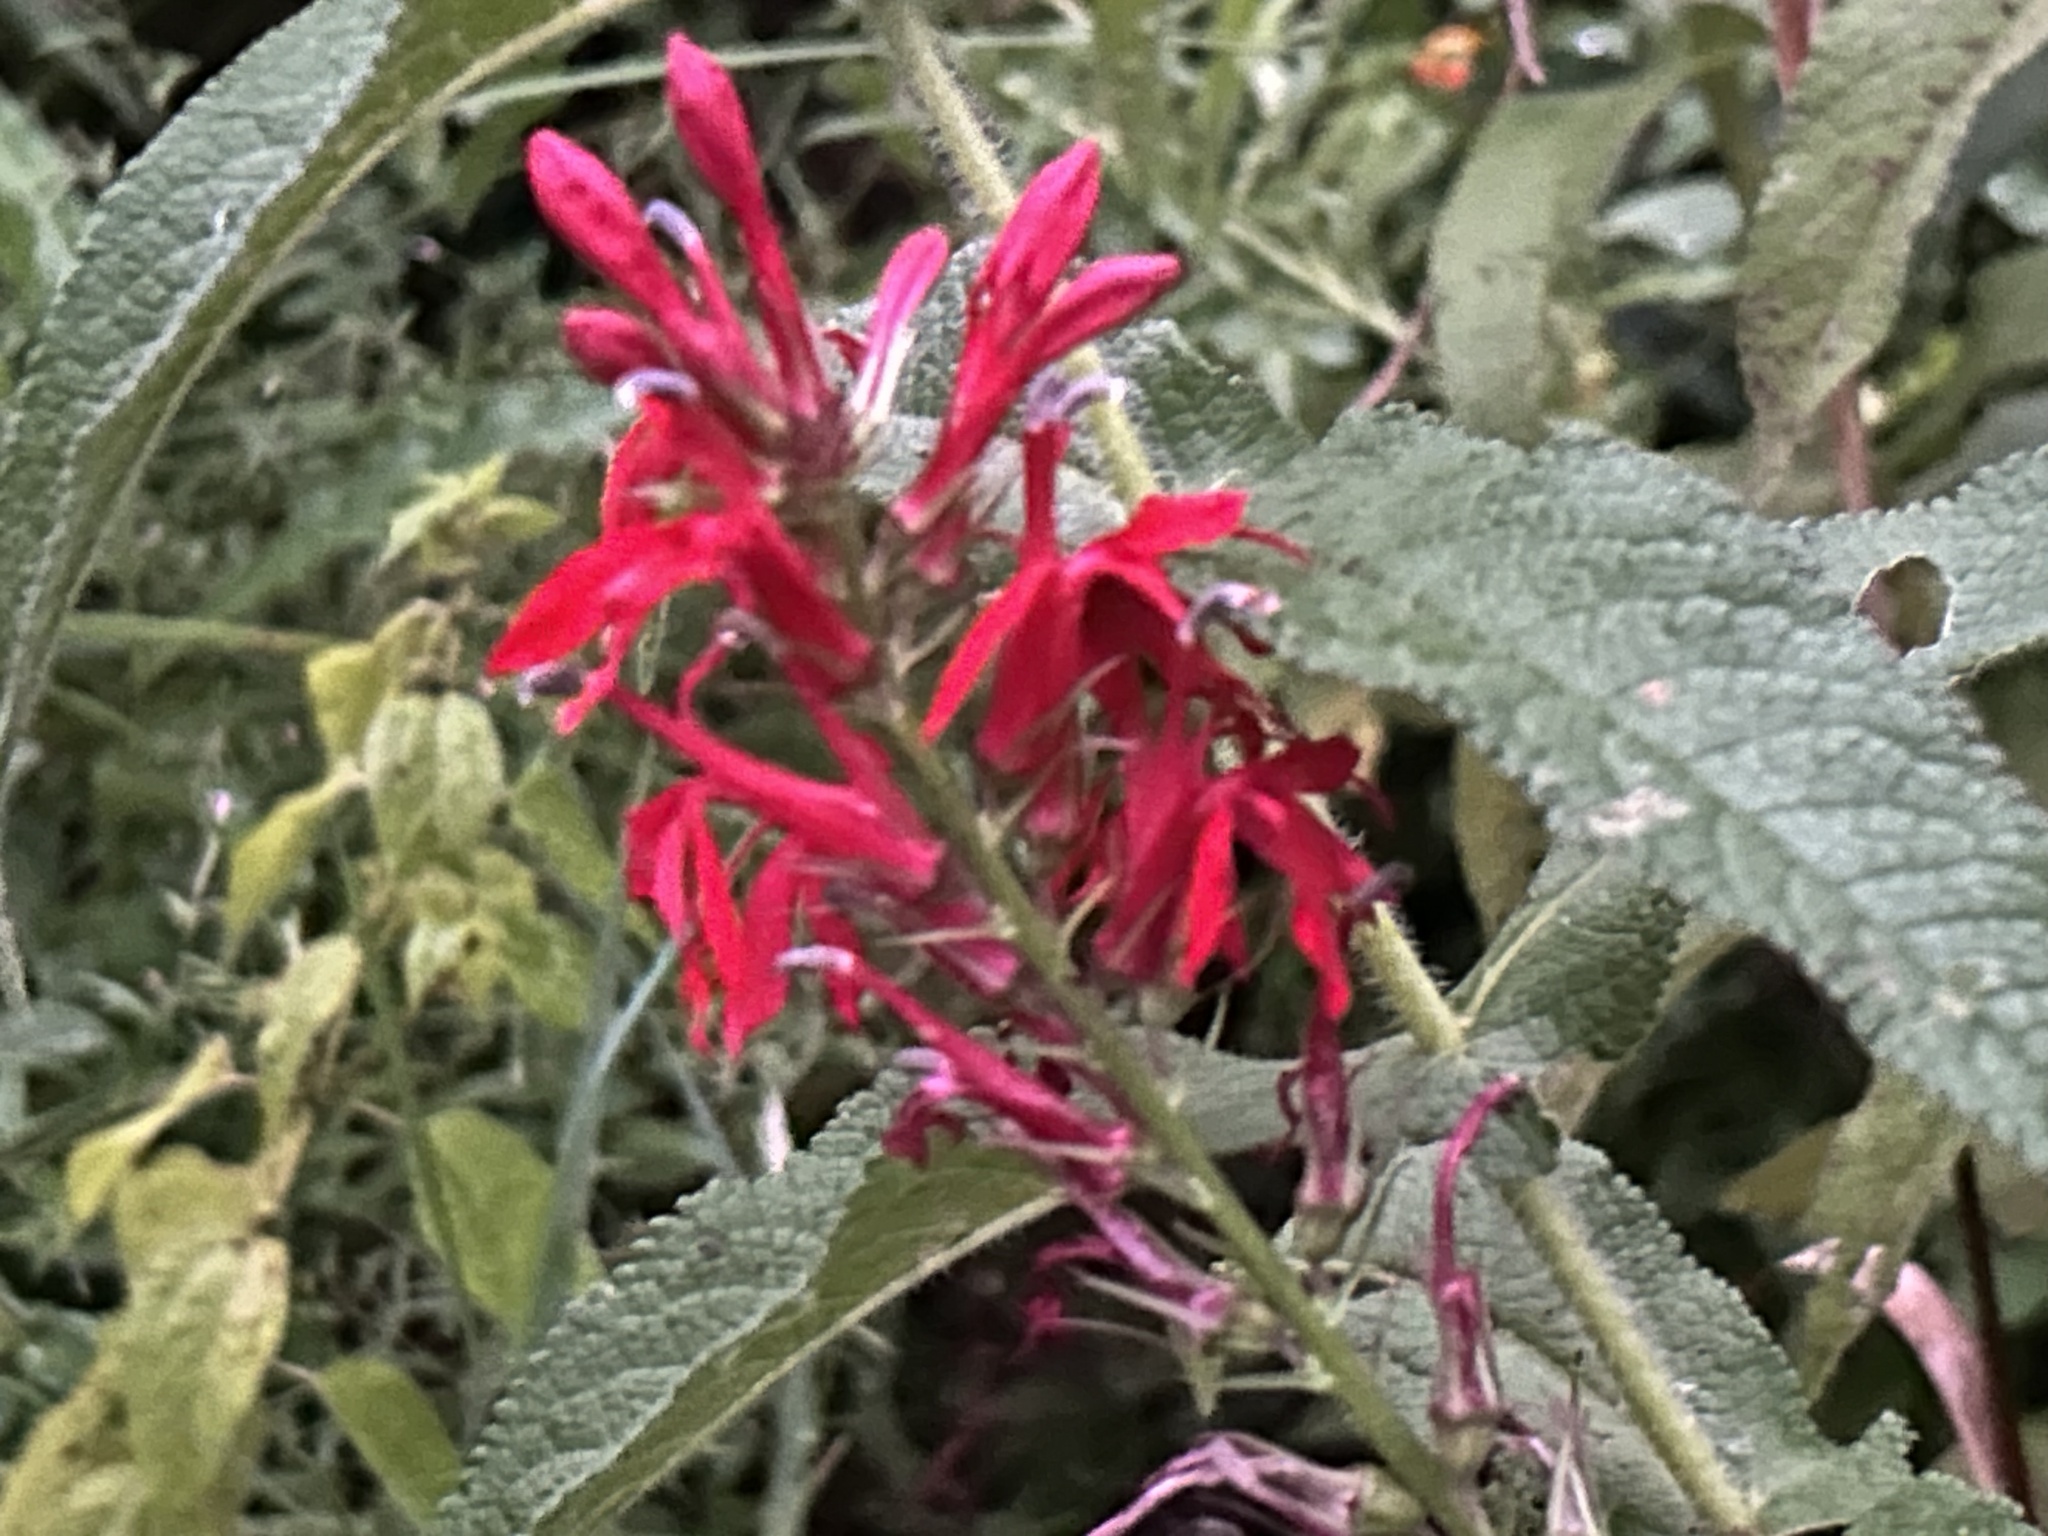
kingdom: Plantae
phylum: Tracheophyta
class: Magnoliopsida
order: Asterales
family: Campanulaceae
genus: Lobelia
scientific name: Lobelia cardinalis
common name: Cardinal flower
